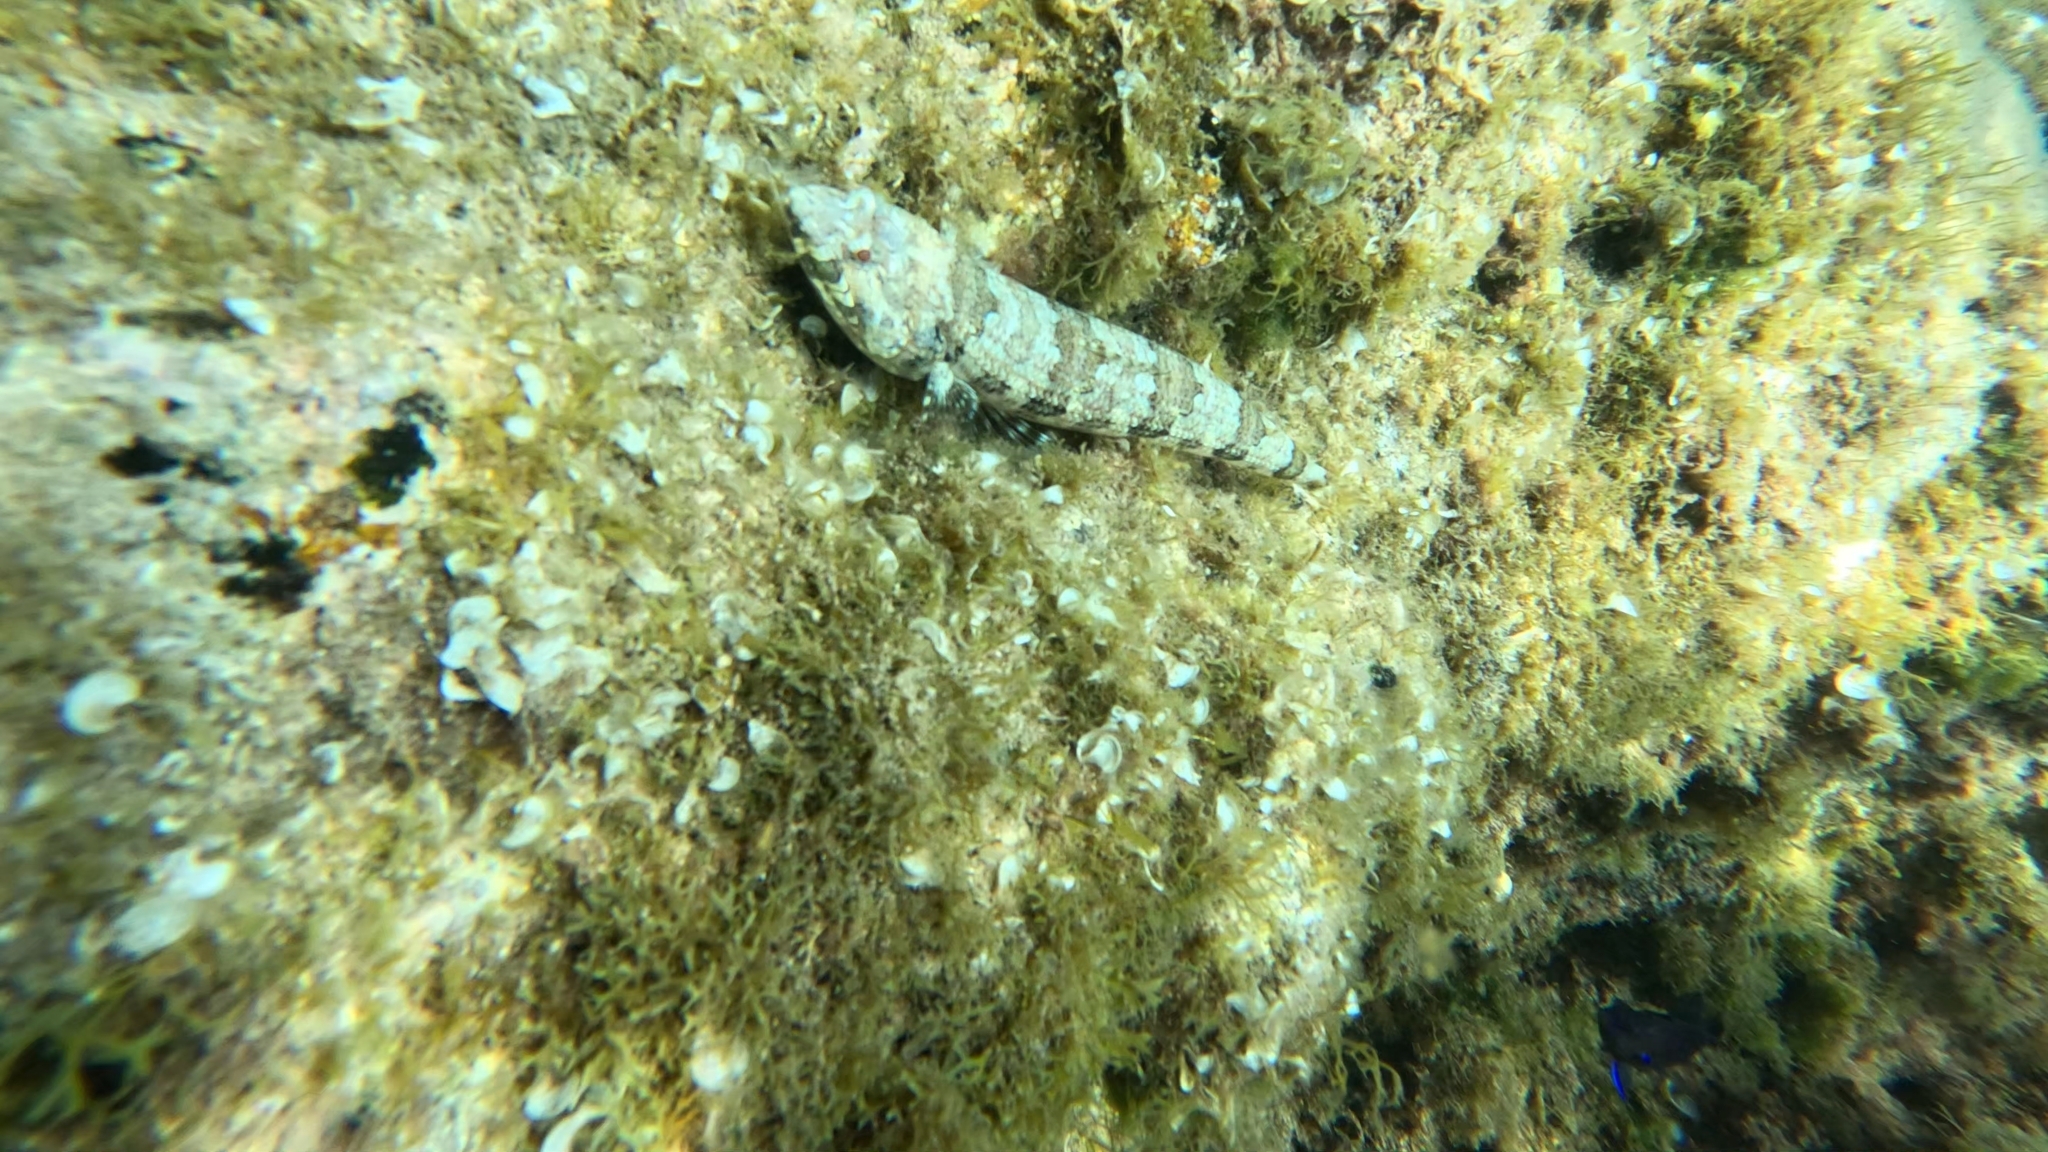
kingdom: Animalia
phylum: Chordata
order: Aulopiformes
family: Synodontidae
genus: Synodus
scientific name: Synodus synodus
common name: Red lizardfish
